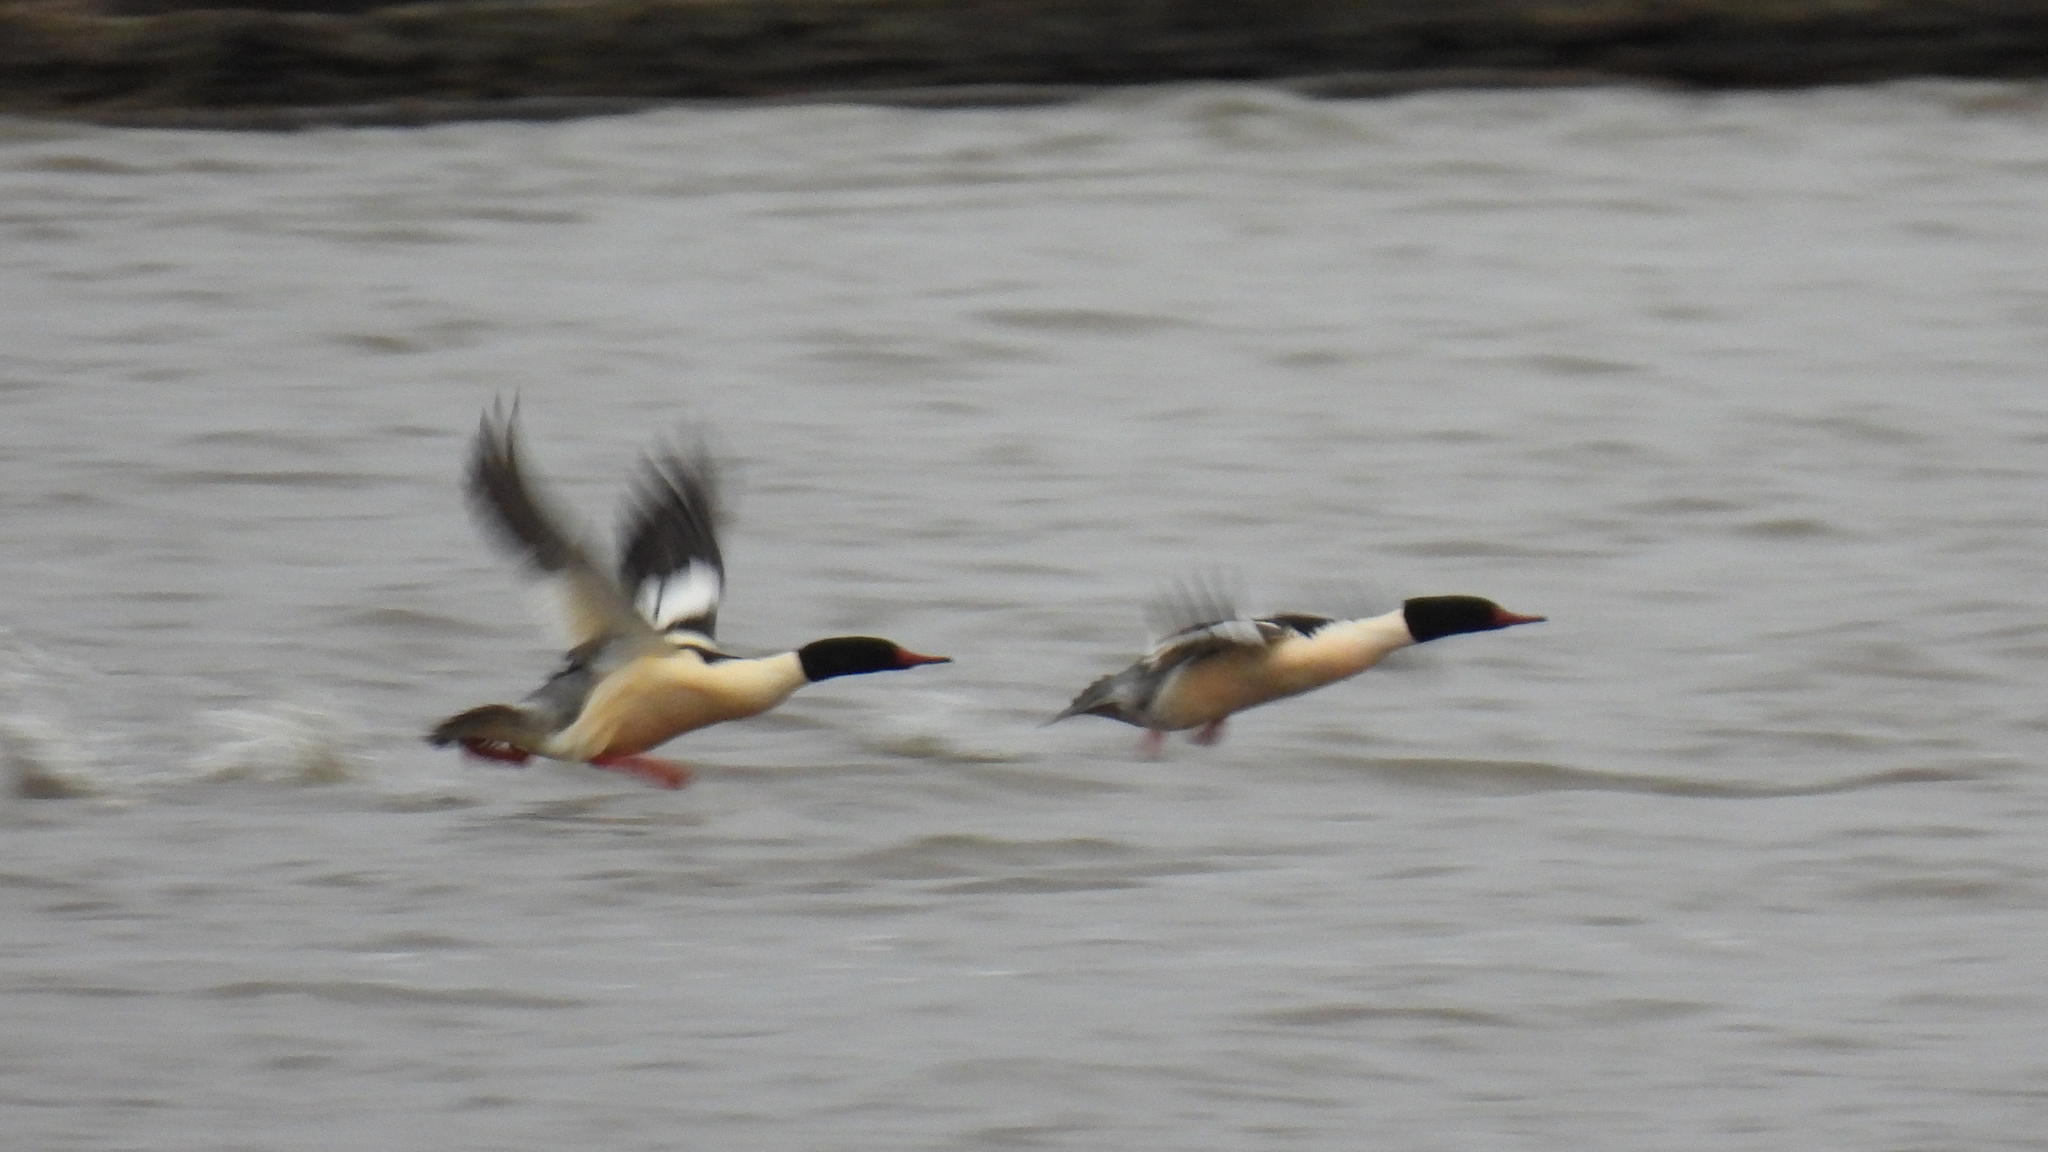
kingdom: Animalia
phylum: Chordata
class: Aves
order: Anseriformes
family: Anatidae
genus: Mergus
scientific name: Mergus merganser
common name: Common merganser
